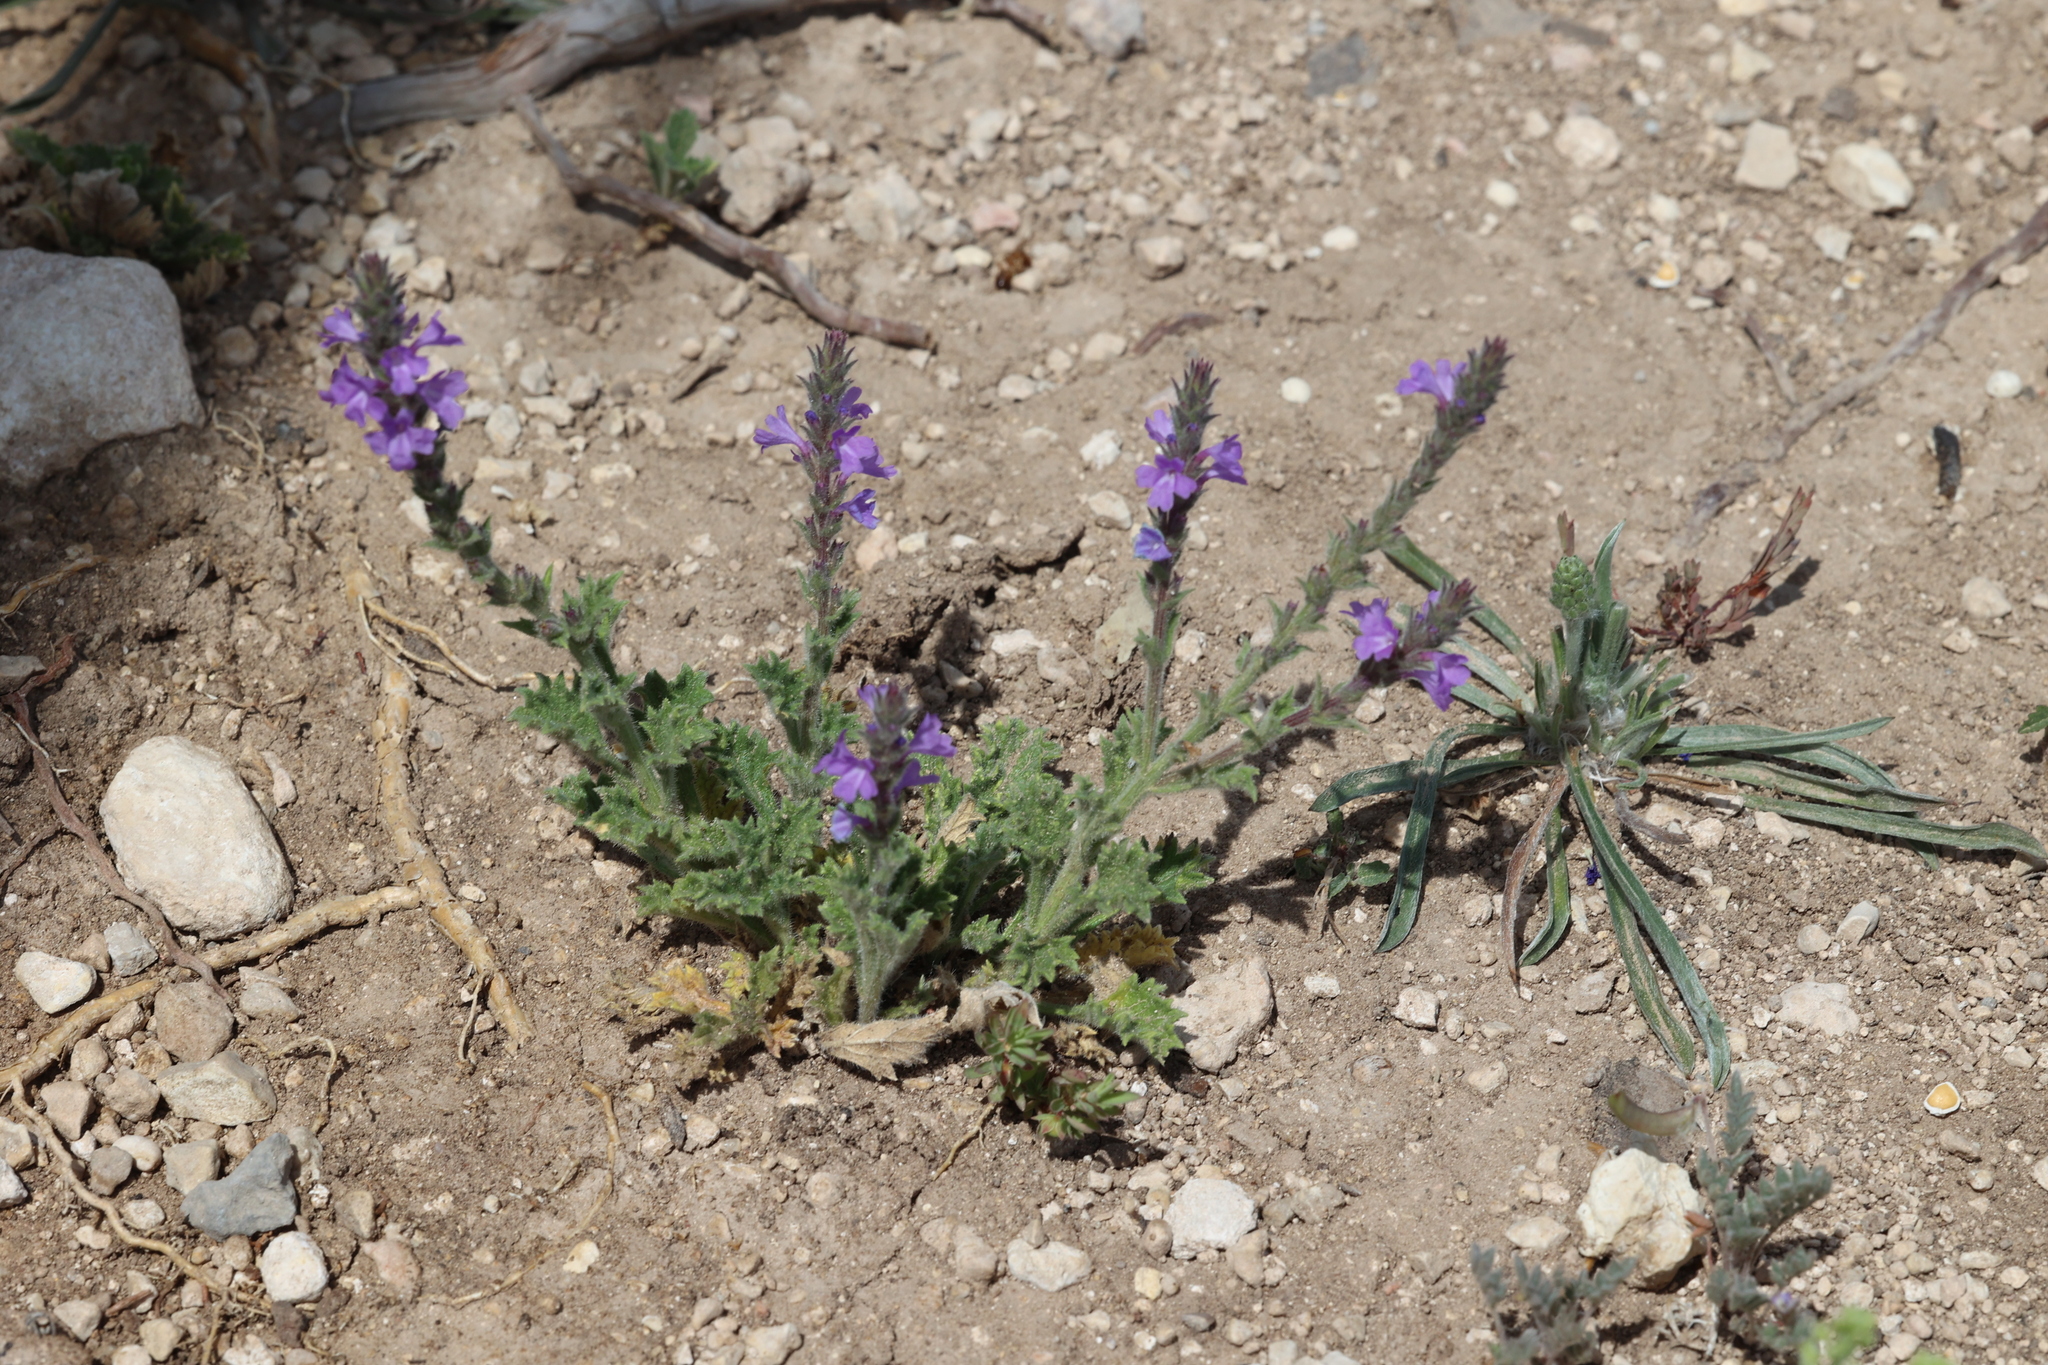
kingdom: Plantae
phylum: Tracheophyta
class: Magnoliopsida
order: Lamiales
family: Verbenaceae
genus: Verbena
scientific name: Verbena canescens
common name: Gray vervain
